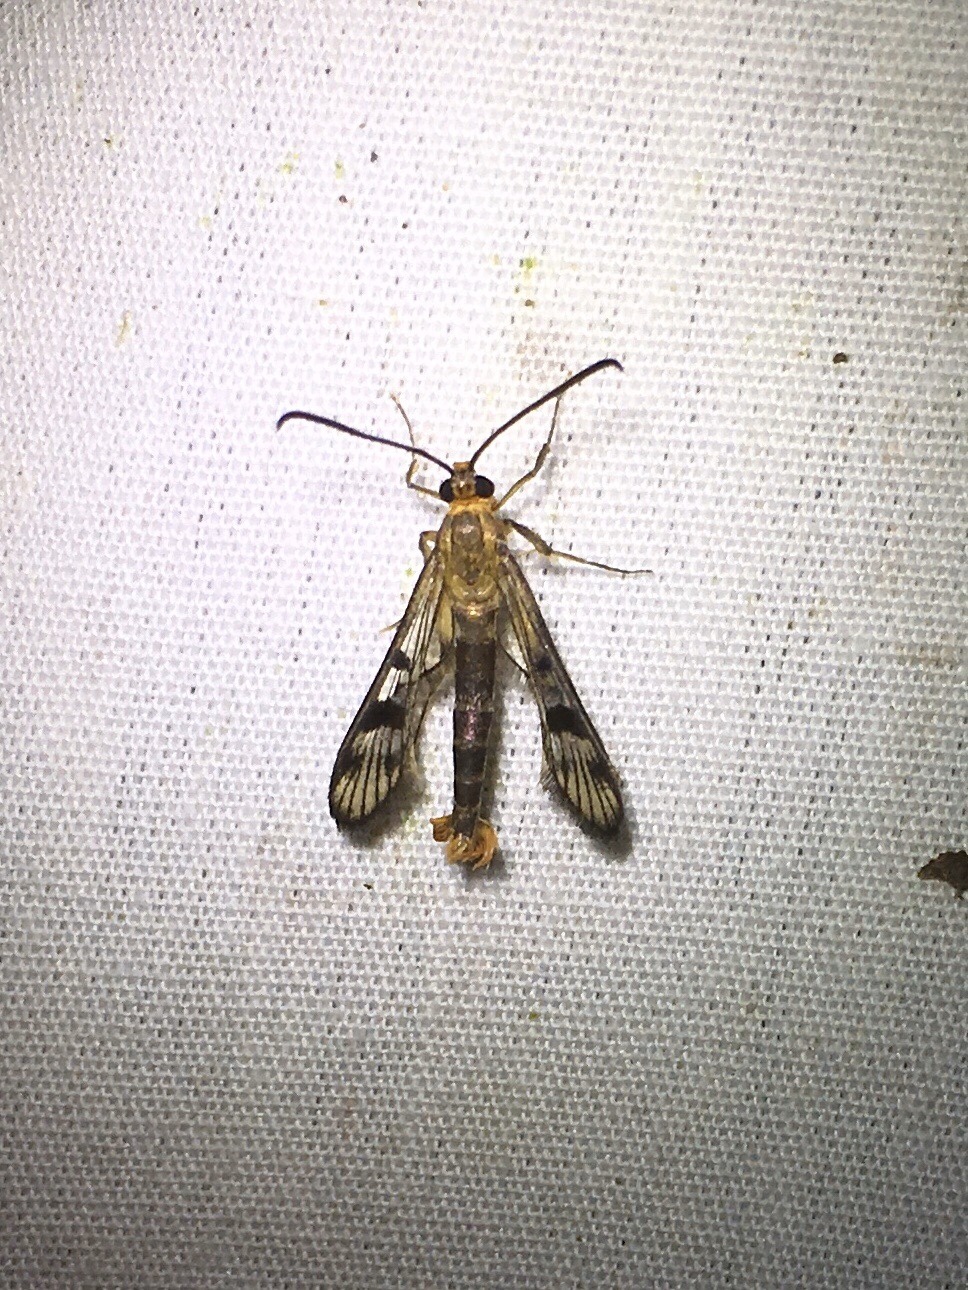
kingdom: Animalia
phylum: Arthropoda
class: Insecta
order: Lepidoptera
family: Sesiidae
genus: Synanthedon
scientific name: Synanthedon acerni
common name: Maple callus borer moth
